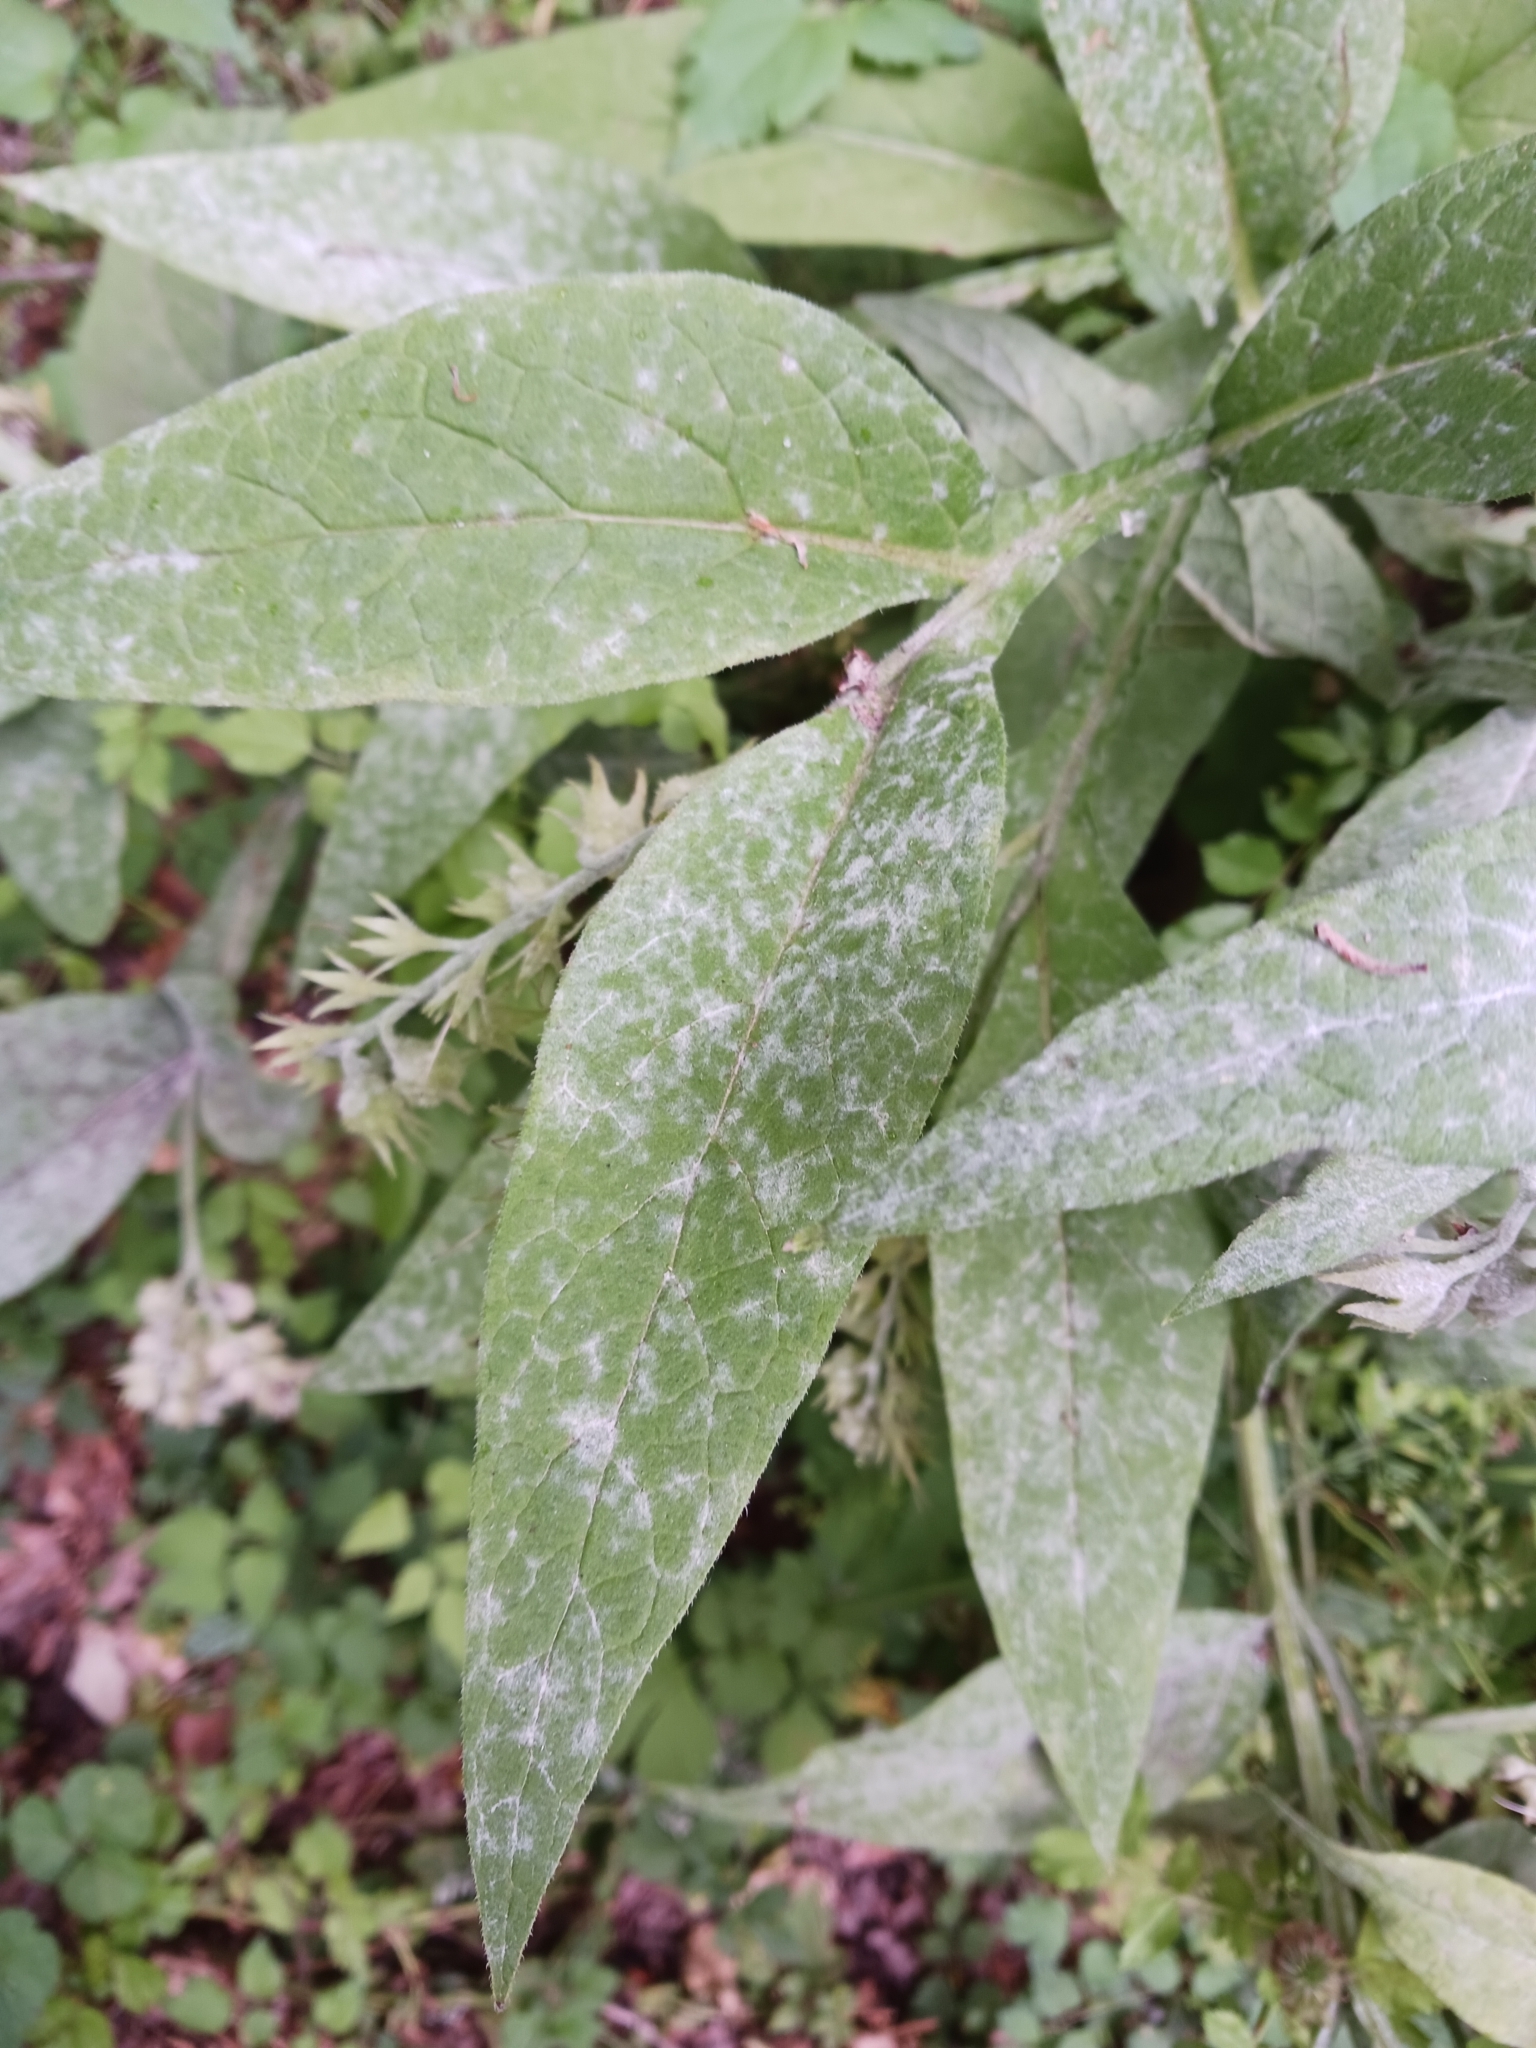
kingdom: Fungi
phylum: Ascomycota
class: Leotiomycetes
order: Helotiales
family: Erysiphaceae
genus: Golovinomyces
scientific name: Golovinomyces asperifoliorum
